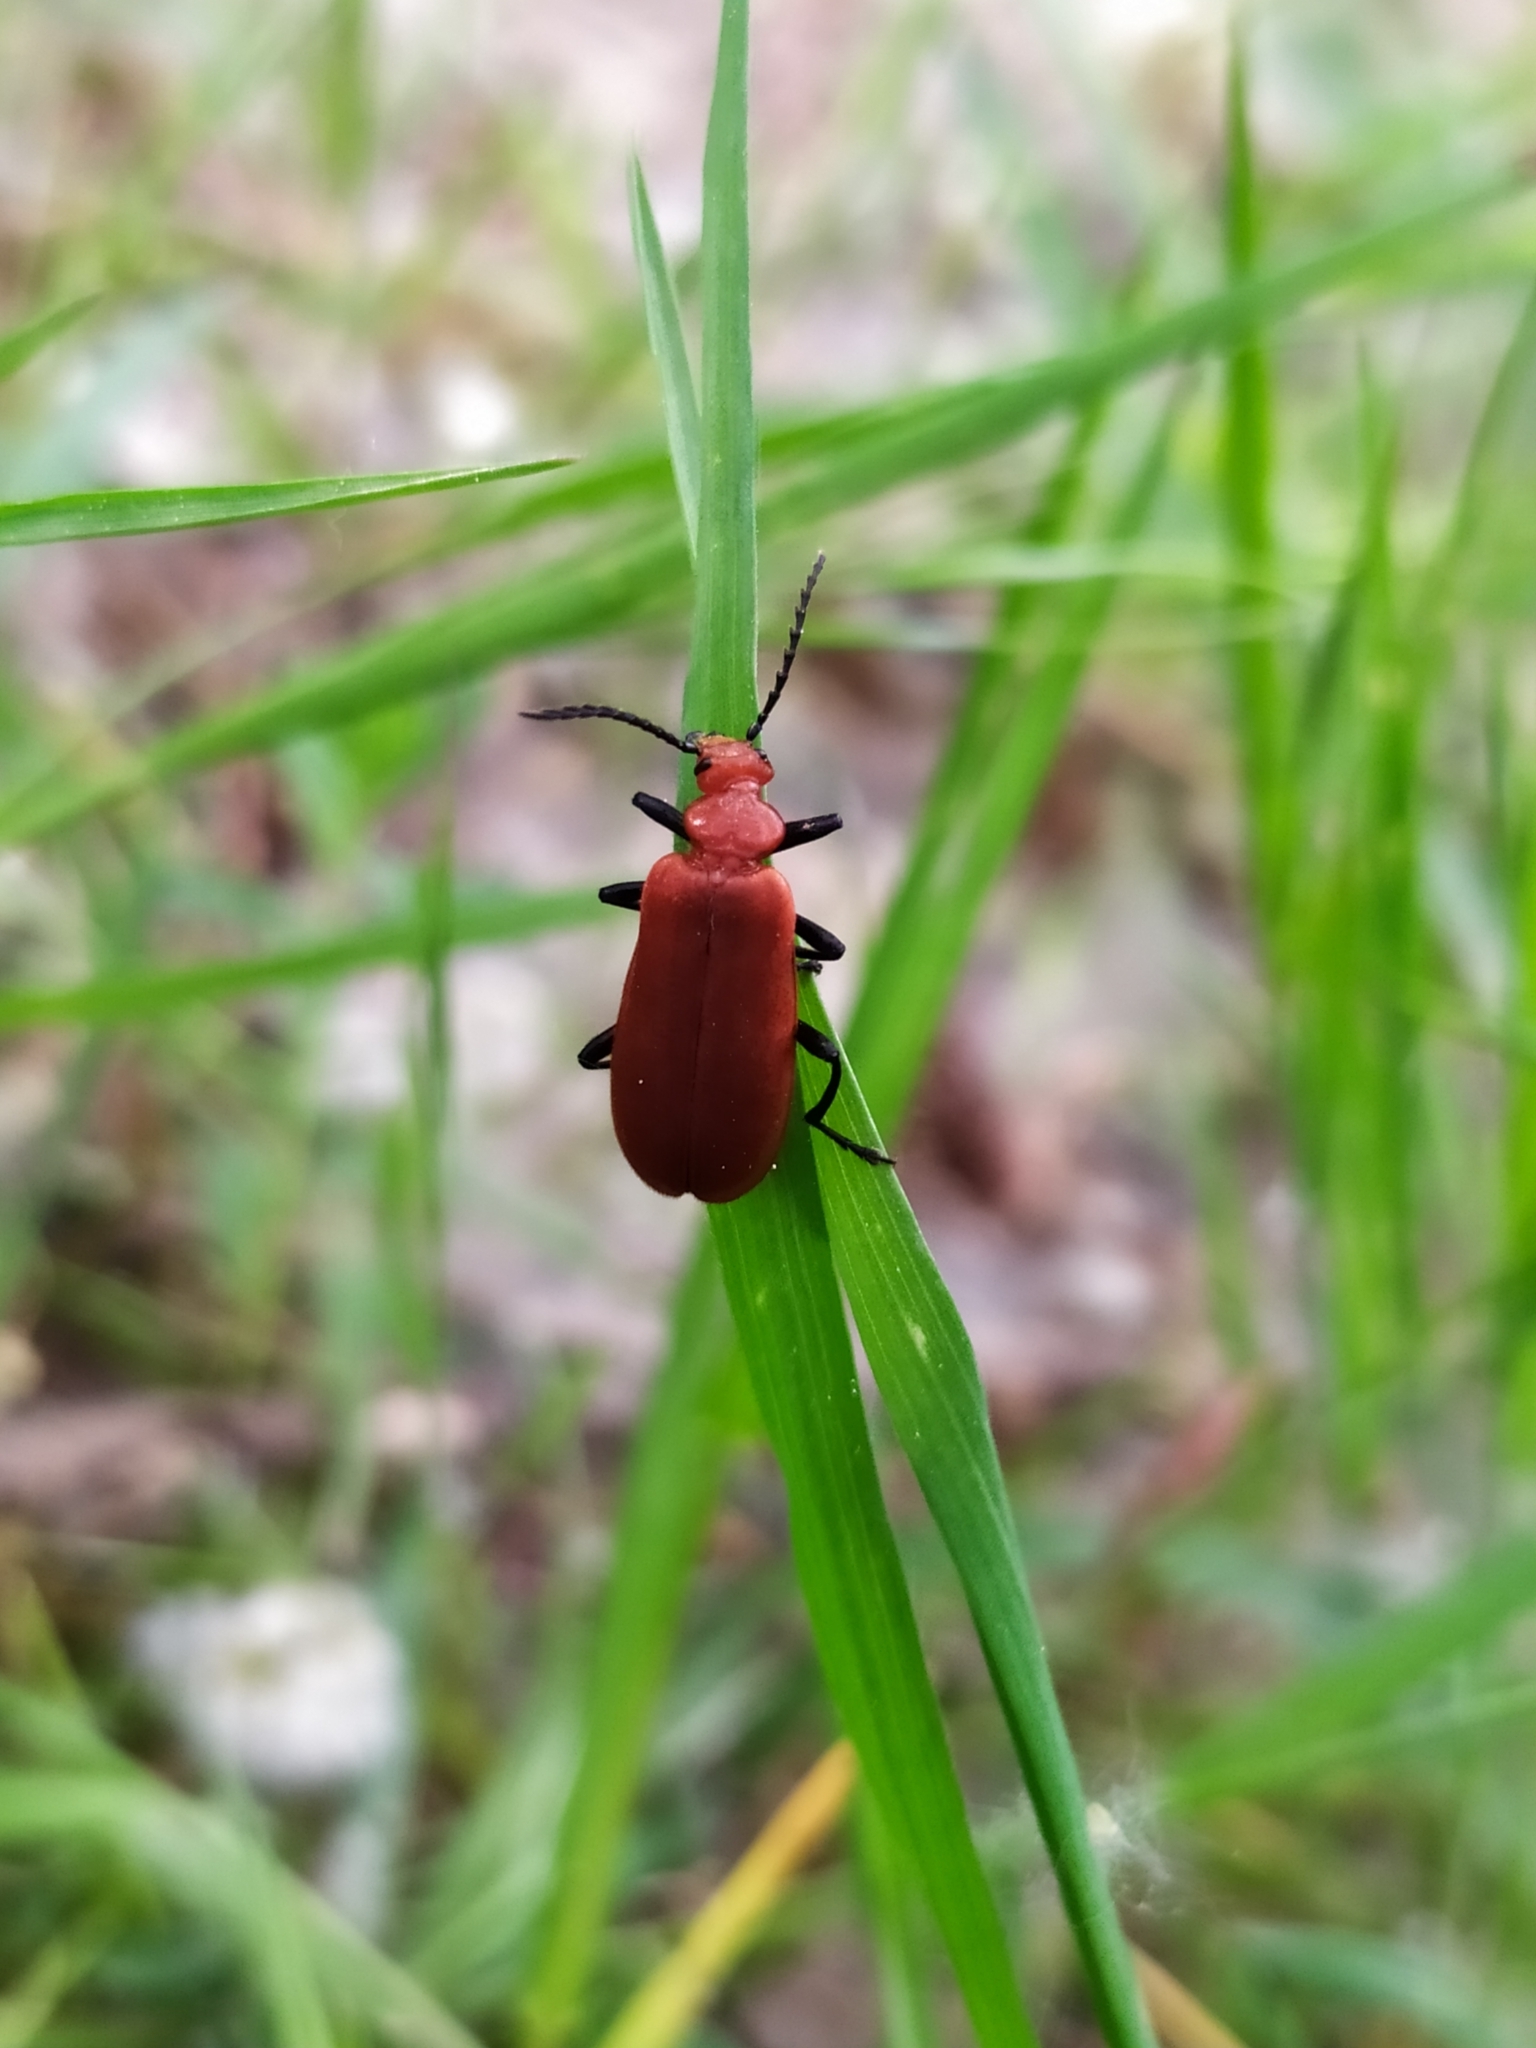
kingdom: Animalia
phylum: Arthropoda
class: Insecta
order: Coleoptera
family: Pyrochroidae
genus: Pyrochroa
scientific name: Pyrochroa serraticornis
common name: Red-headed cardinal beetle
